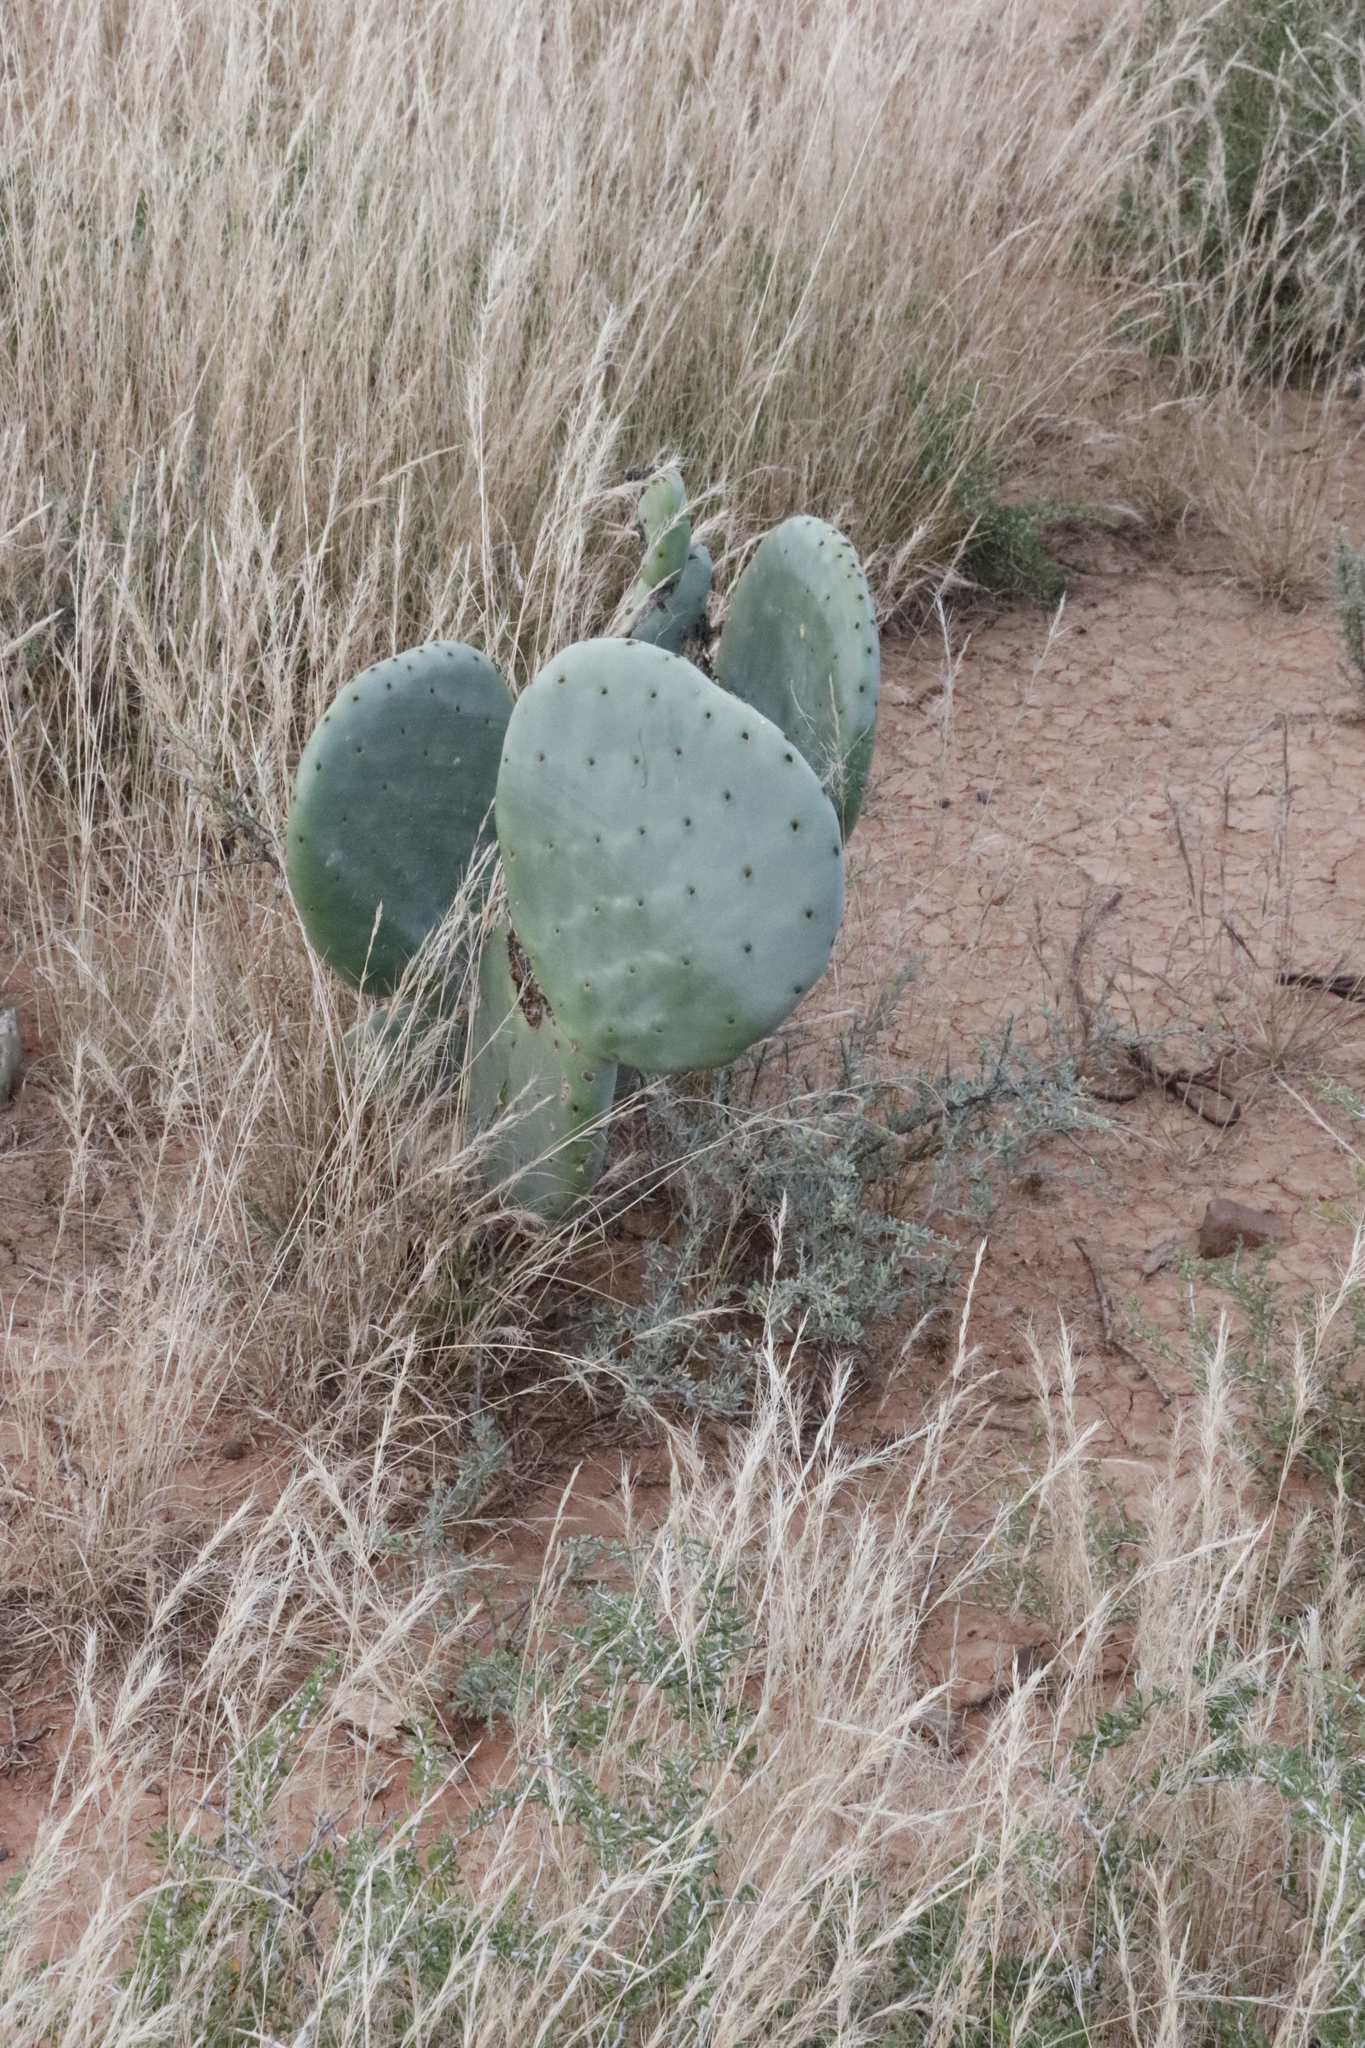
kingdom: Plantae
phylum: Tracheophyta
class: Magnoliopsida
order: Caryophyllales
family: Cactaceae
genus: Opuntia
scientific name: Opuntia robusta
